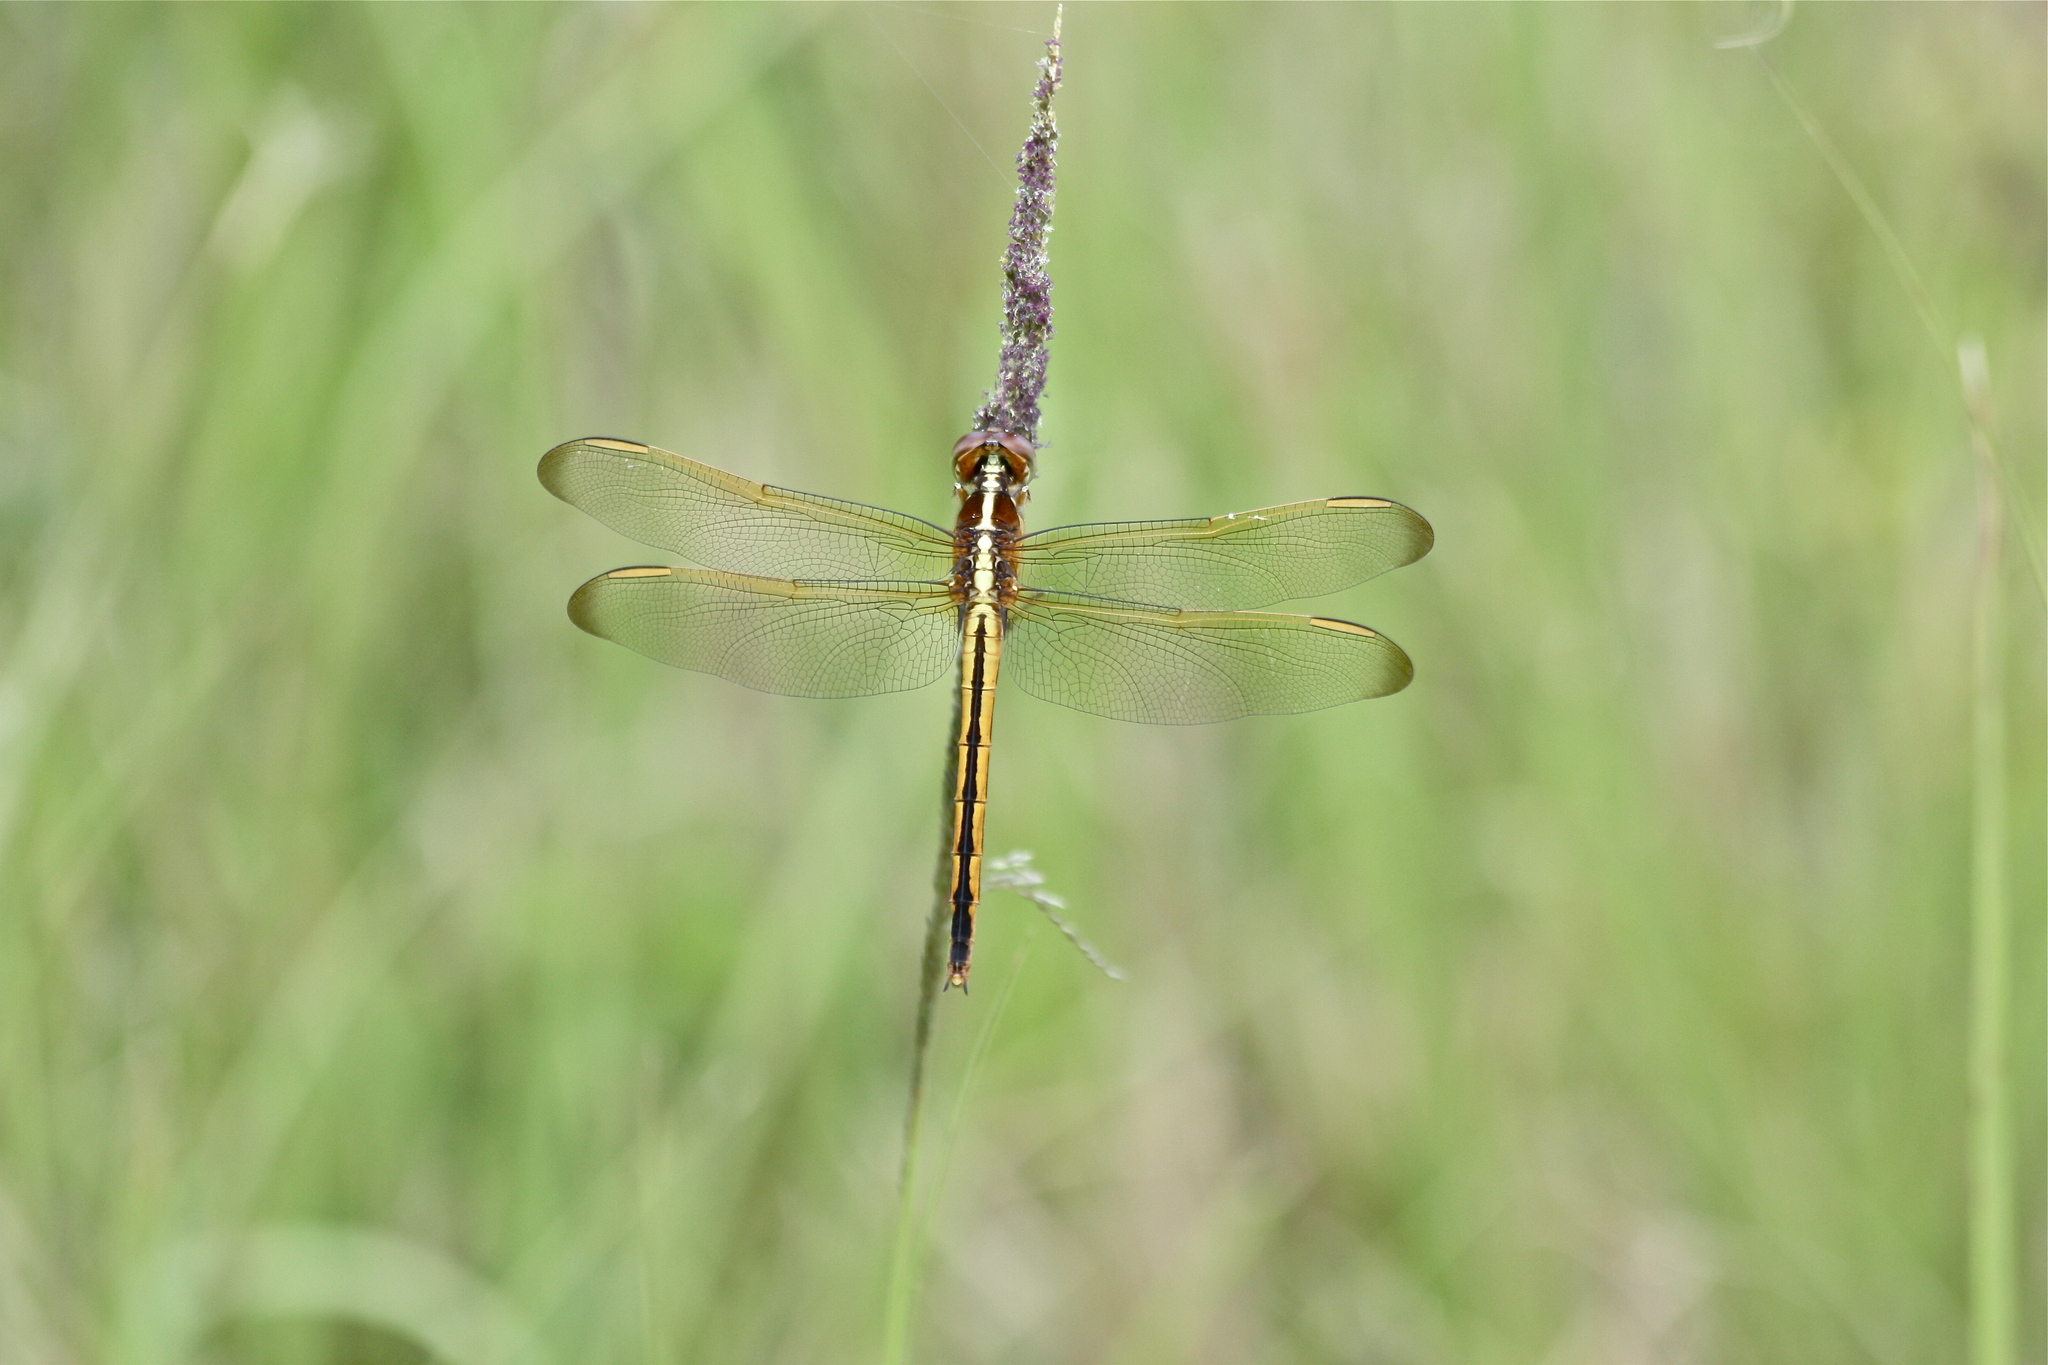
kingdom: Animalia
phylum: Arthropoda
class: Insecta
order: Odonata
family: Libellulidae
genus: Libellula
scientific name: Libellula needhami
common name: Needham's skimmer
